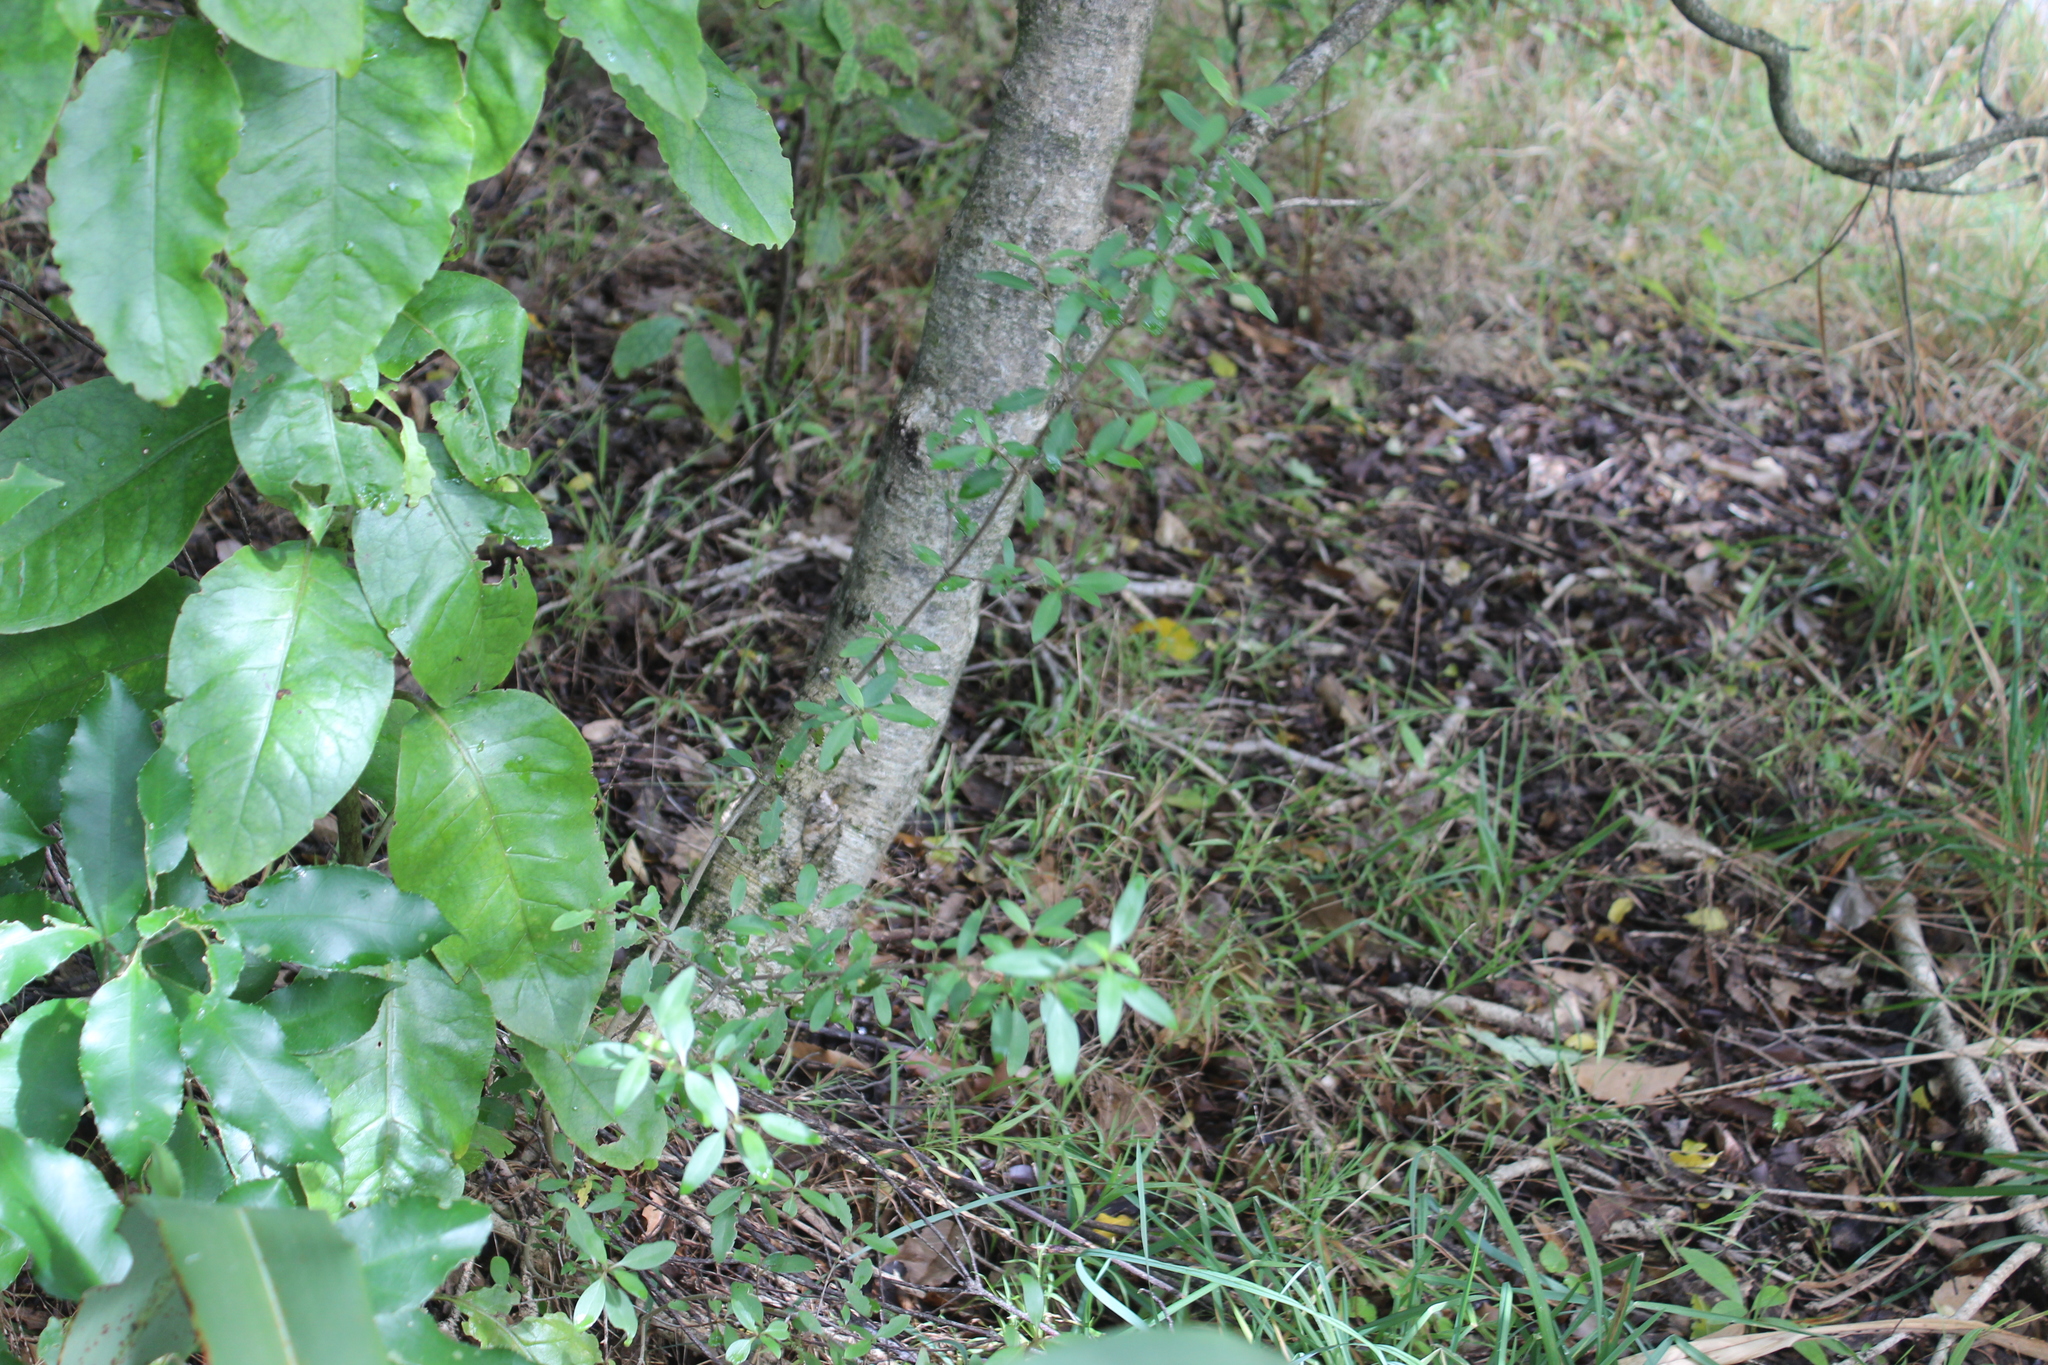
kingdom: Plantae
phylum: Tracheophyta
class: Magnoliopsida
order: Gentianales
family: Rubiaceae
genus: Coprosma
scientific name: Coprosma cunninghamii
